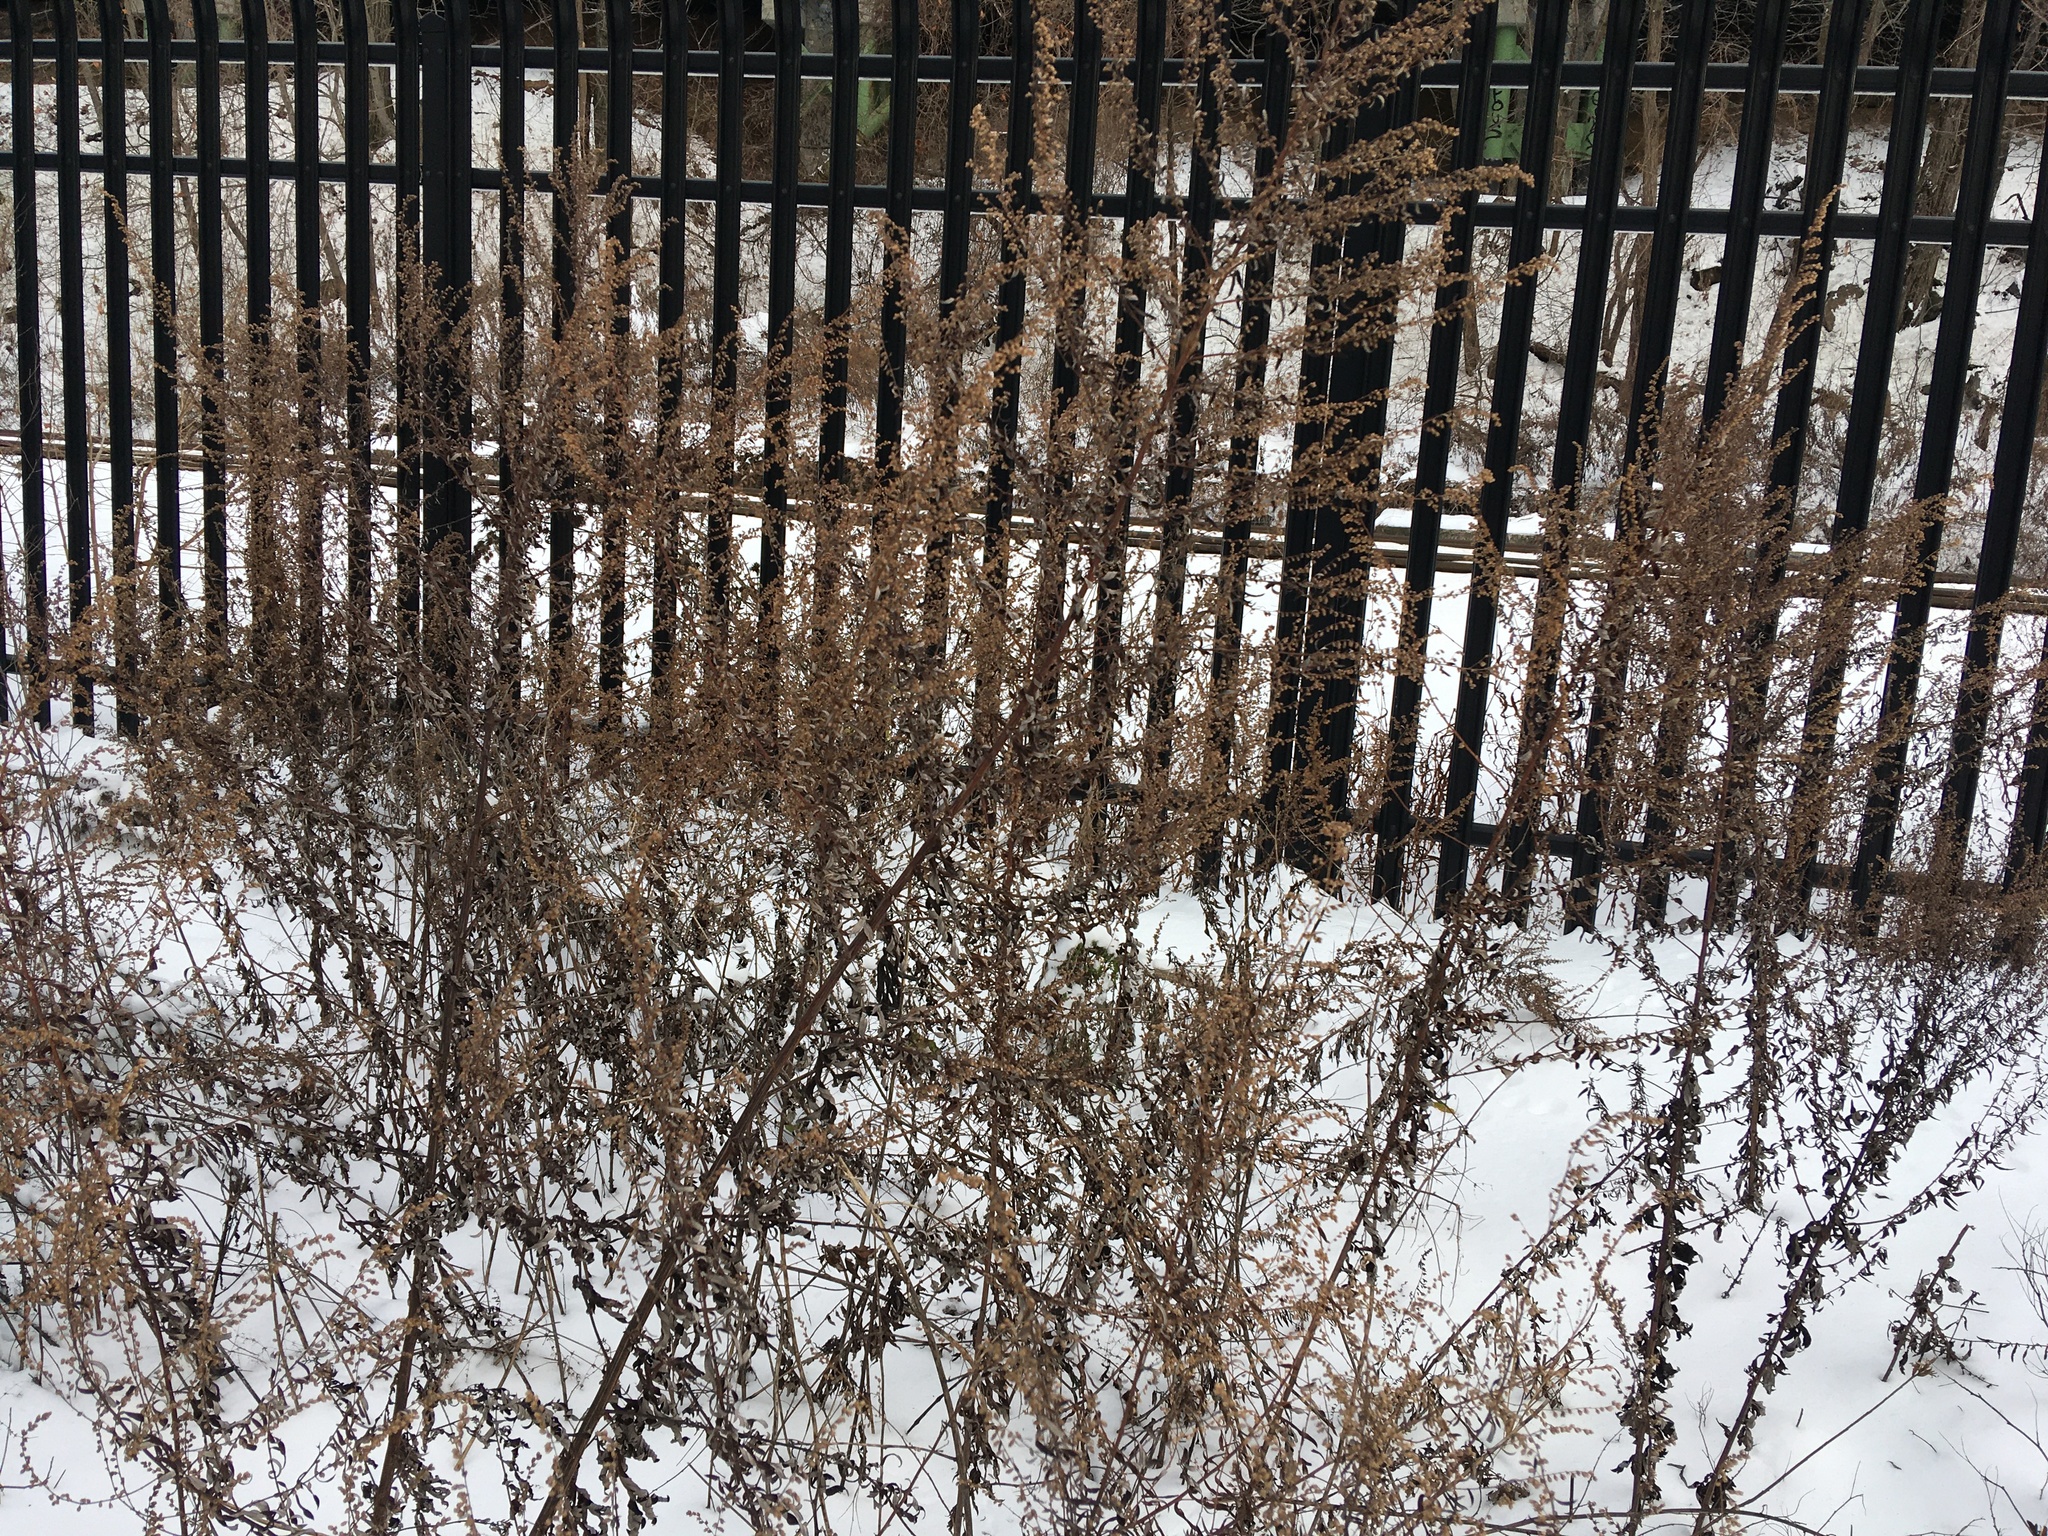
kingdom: Plantae
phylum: Tracheophyta
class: Magnoliopsida
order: Asterales
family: Asteraceae
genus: Artemisia
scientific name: Artemisia vulgaris
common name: Mugwort
